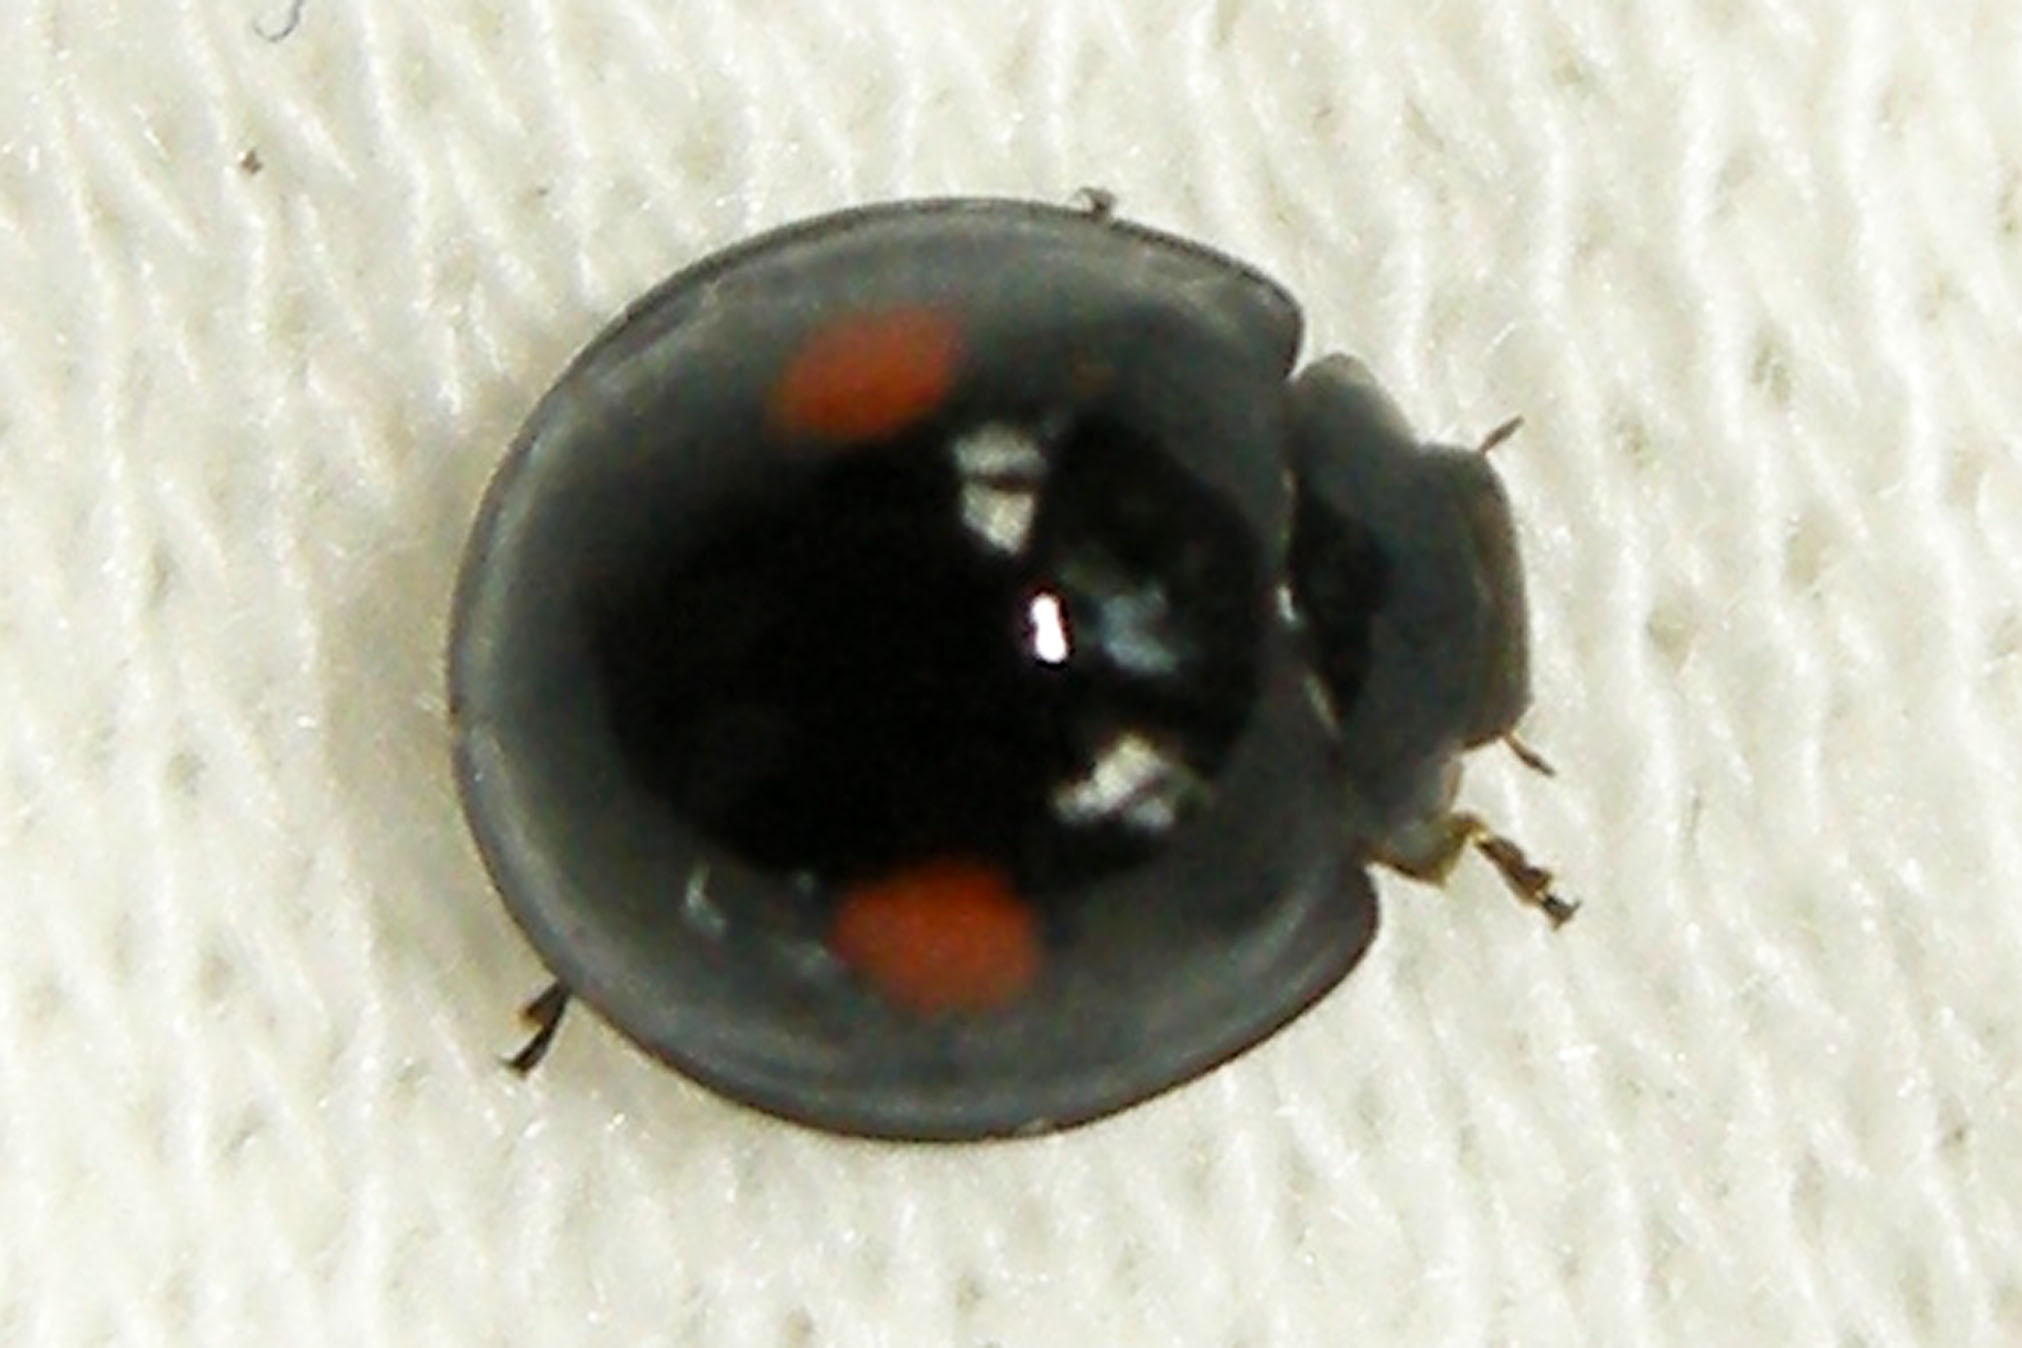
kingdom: Animalia
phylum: Arthropoda
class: Insecta
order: Coleoptera
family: Coccinellidae
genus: Chilocorus
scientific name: Chilocorus tumidus
